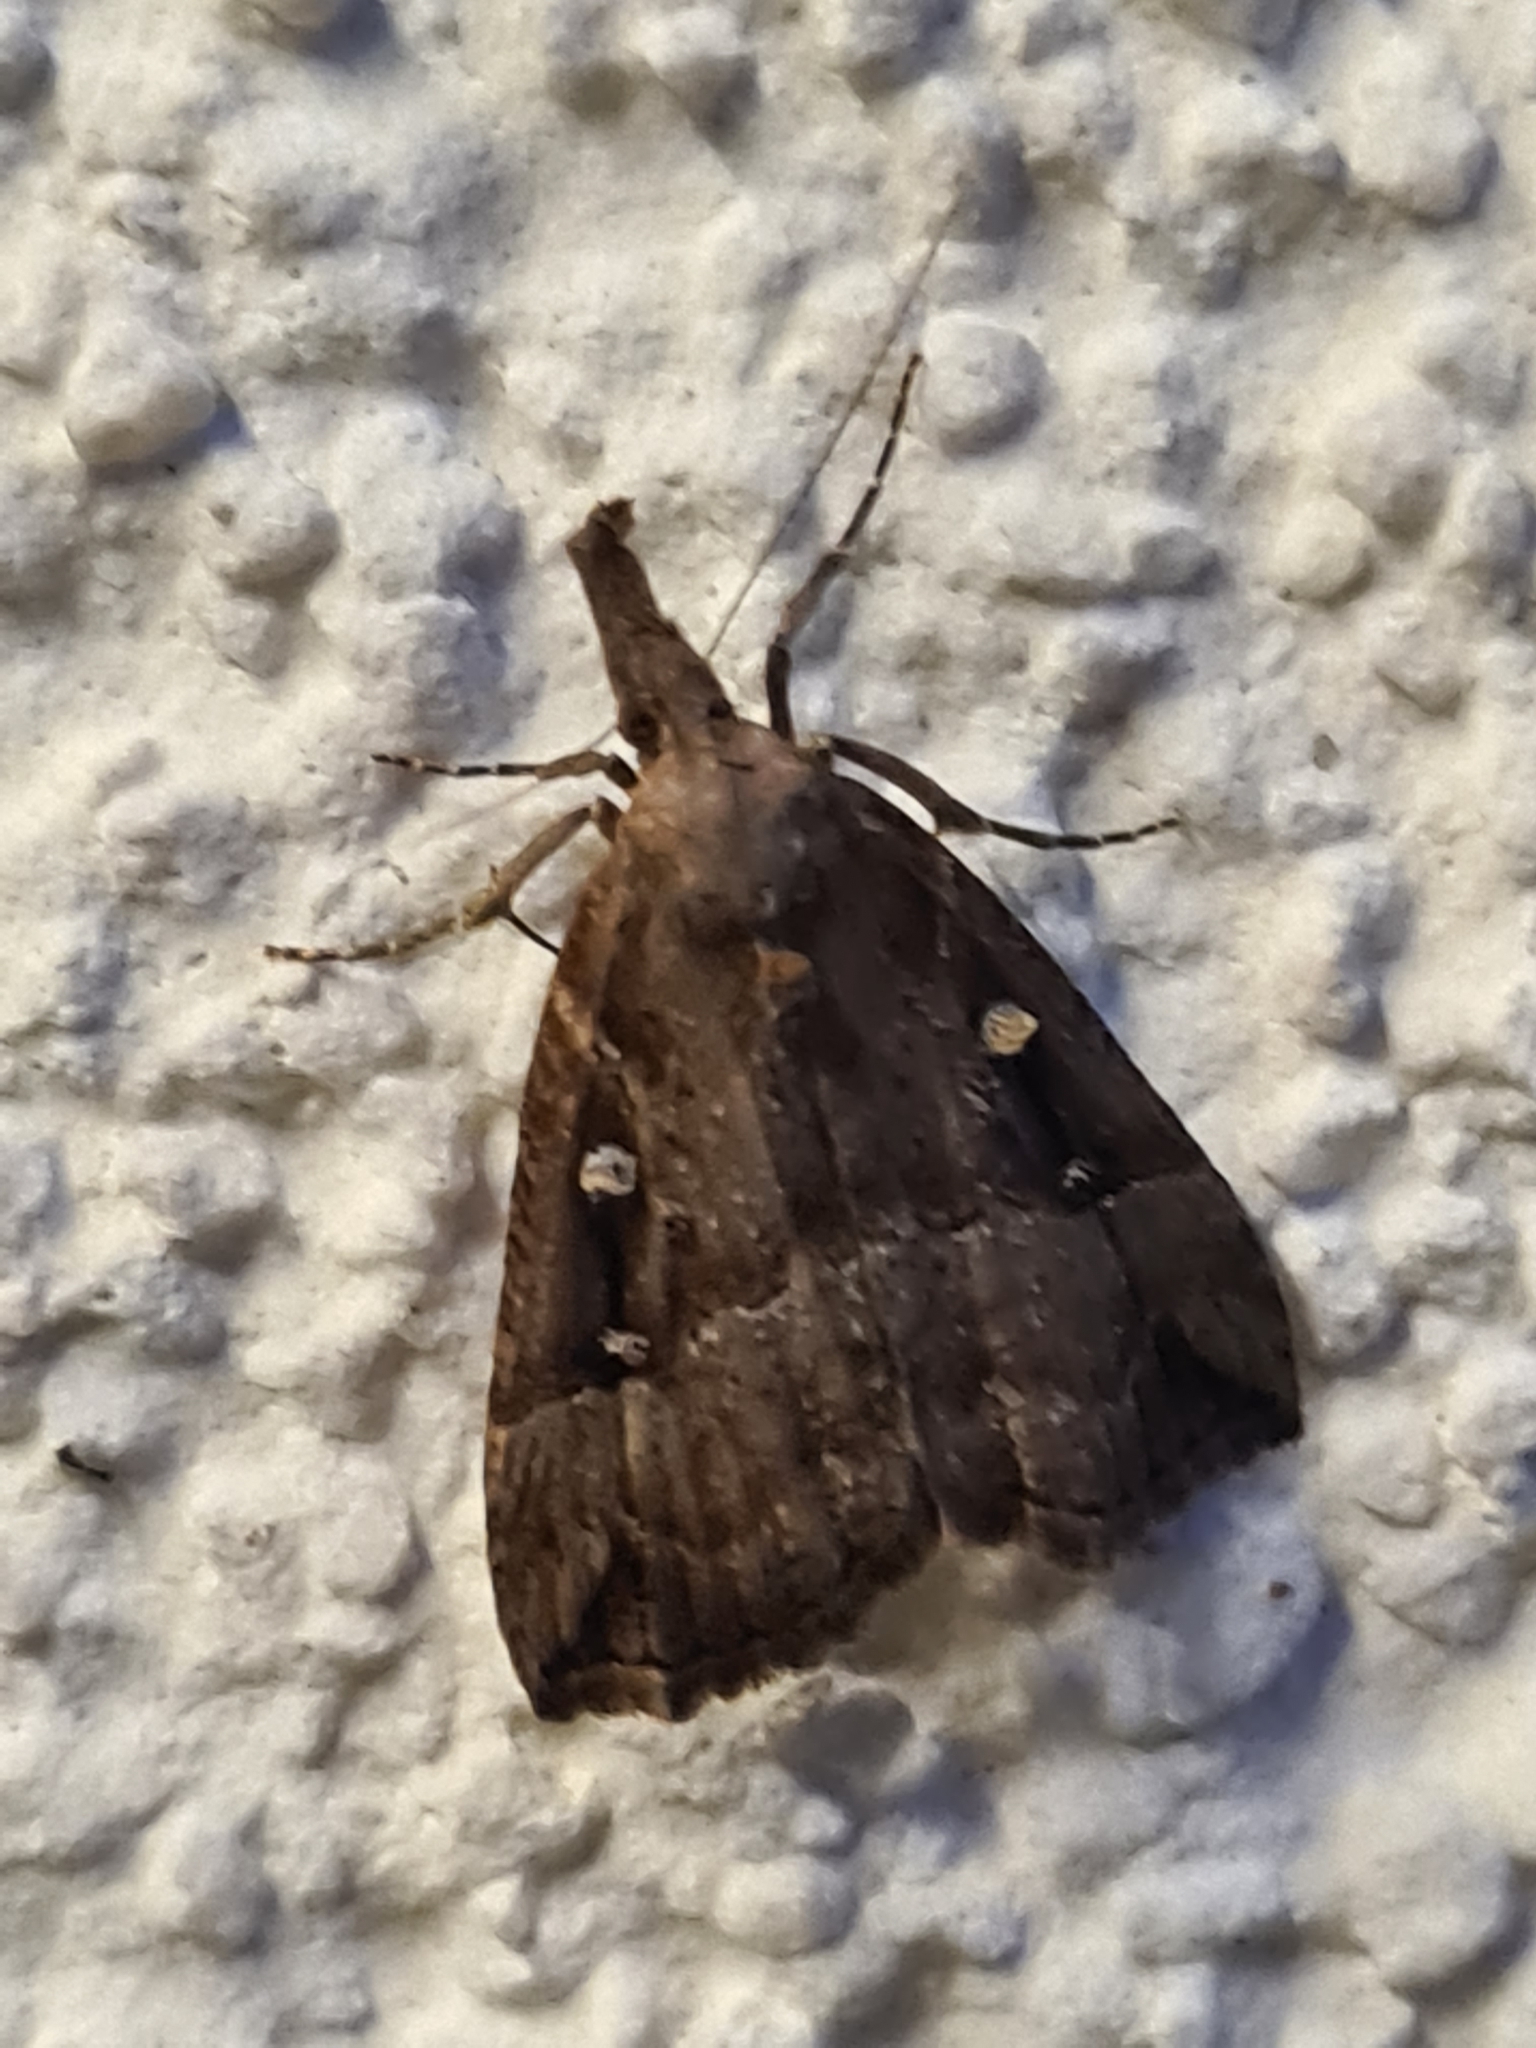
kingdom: Animalia
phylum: Arthropoda
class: Insecta
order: Lepidoptera
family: Erebidae
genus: Hypena
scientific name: Hypena rostralis
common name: Buttoned snout
